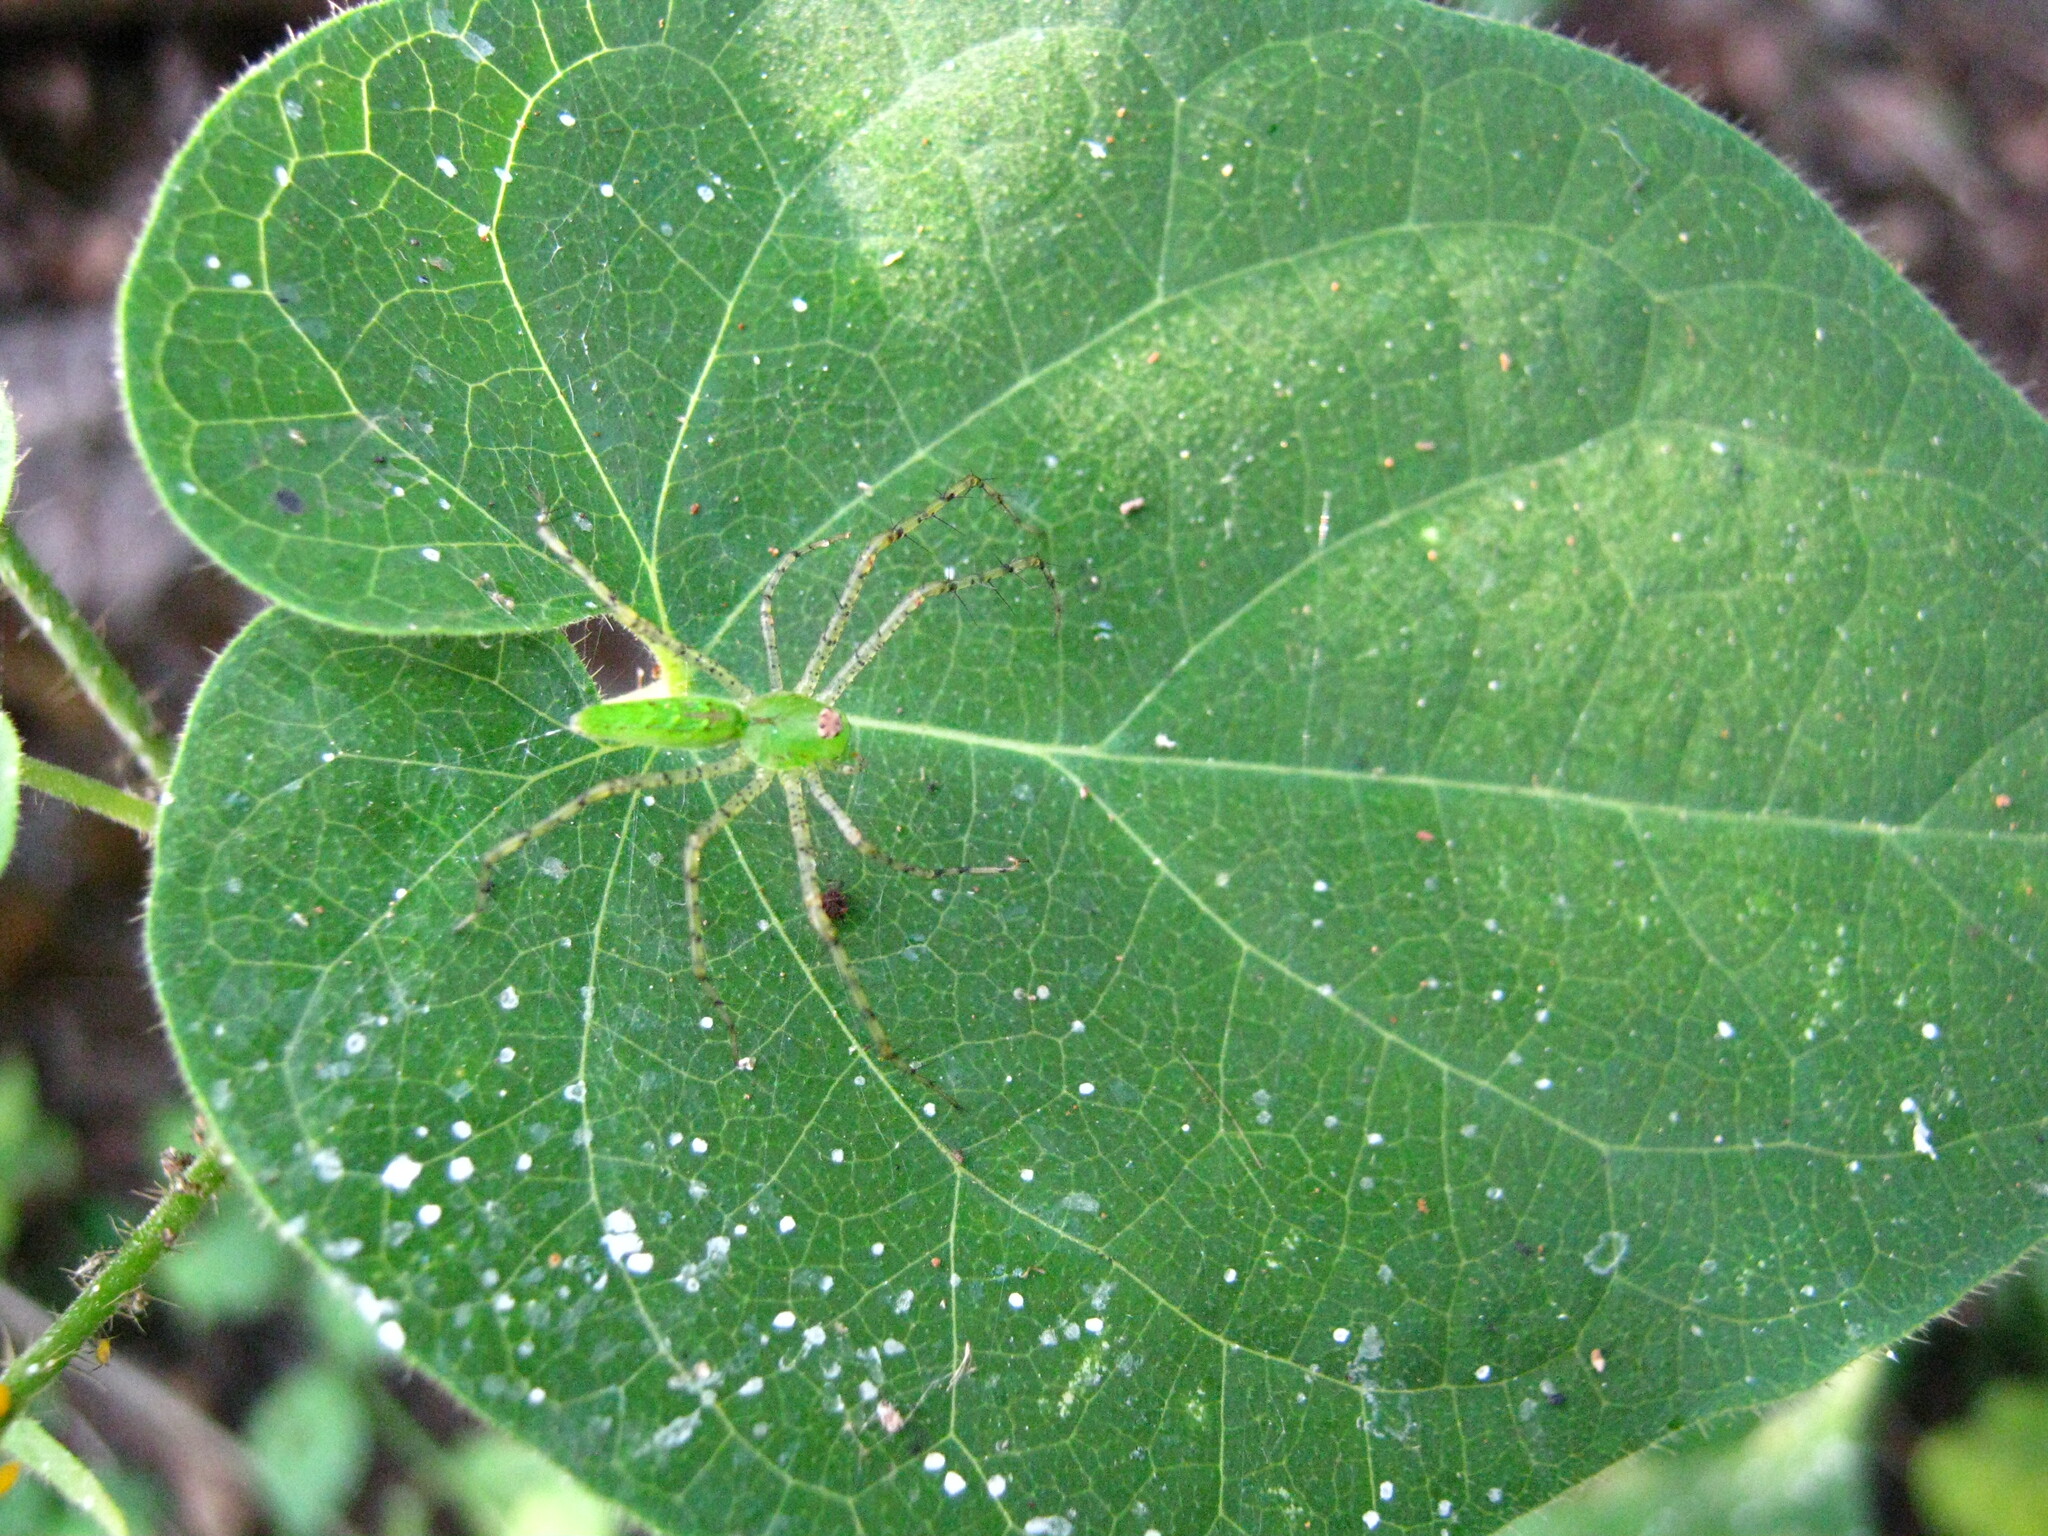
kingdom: Plantae
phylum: Tracheophyta
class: Magnoliopsida
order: Gentianales
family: Apocynaceae
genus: Polystemma
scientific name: Polystemma guatemalense
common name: Arborescente rattan
